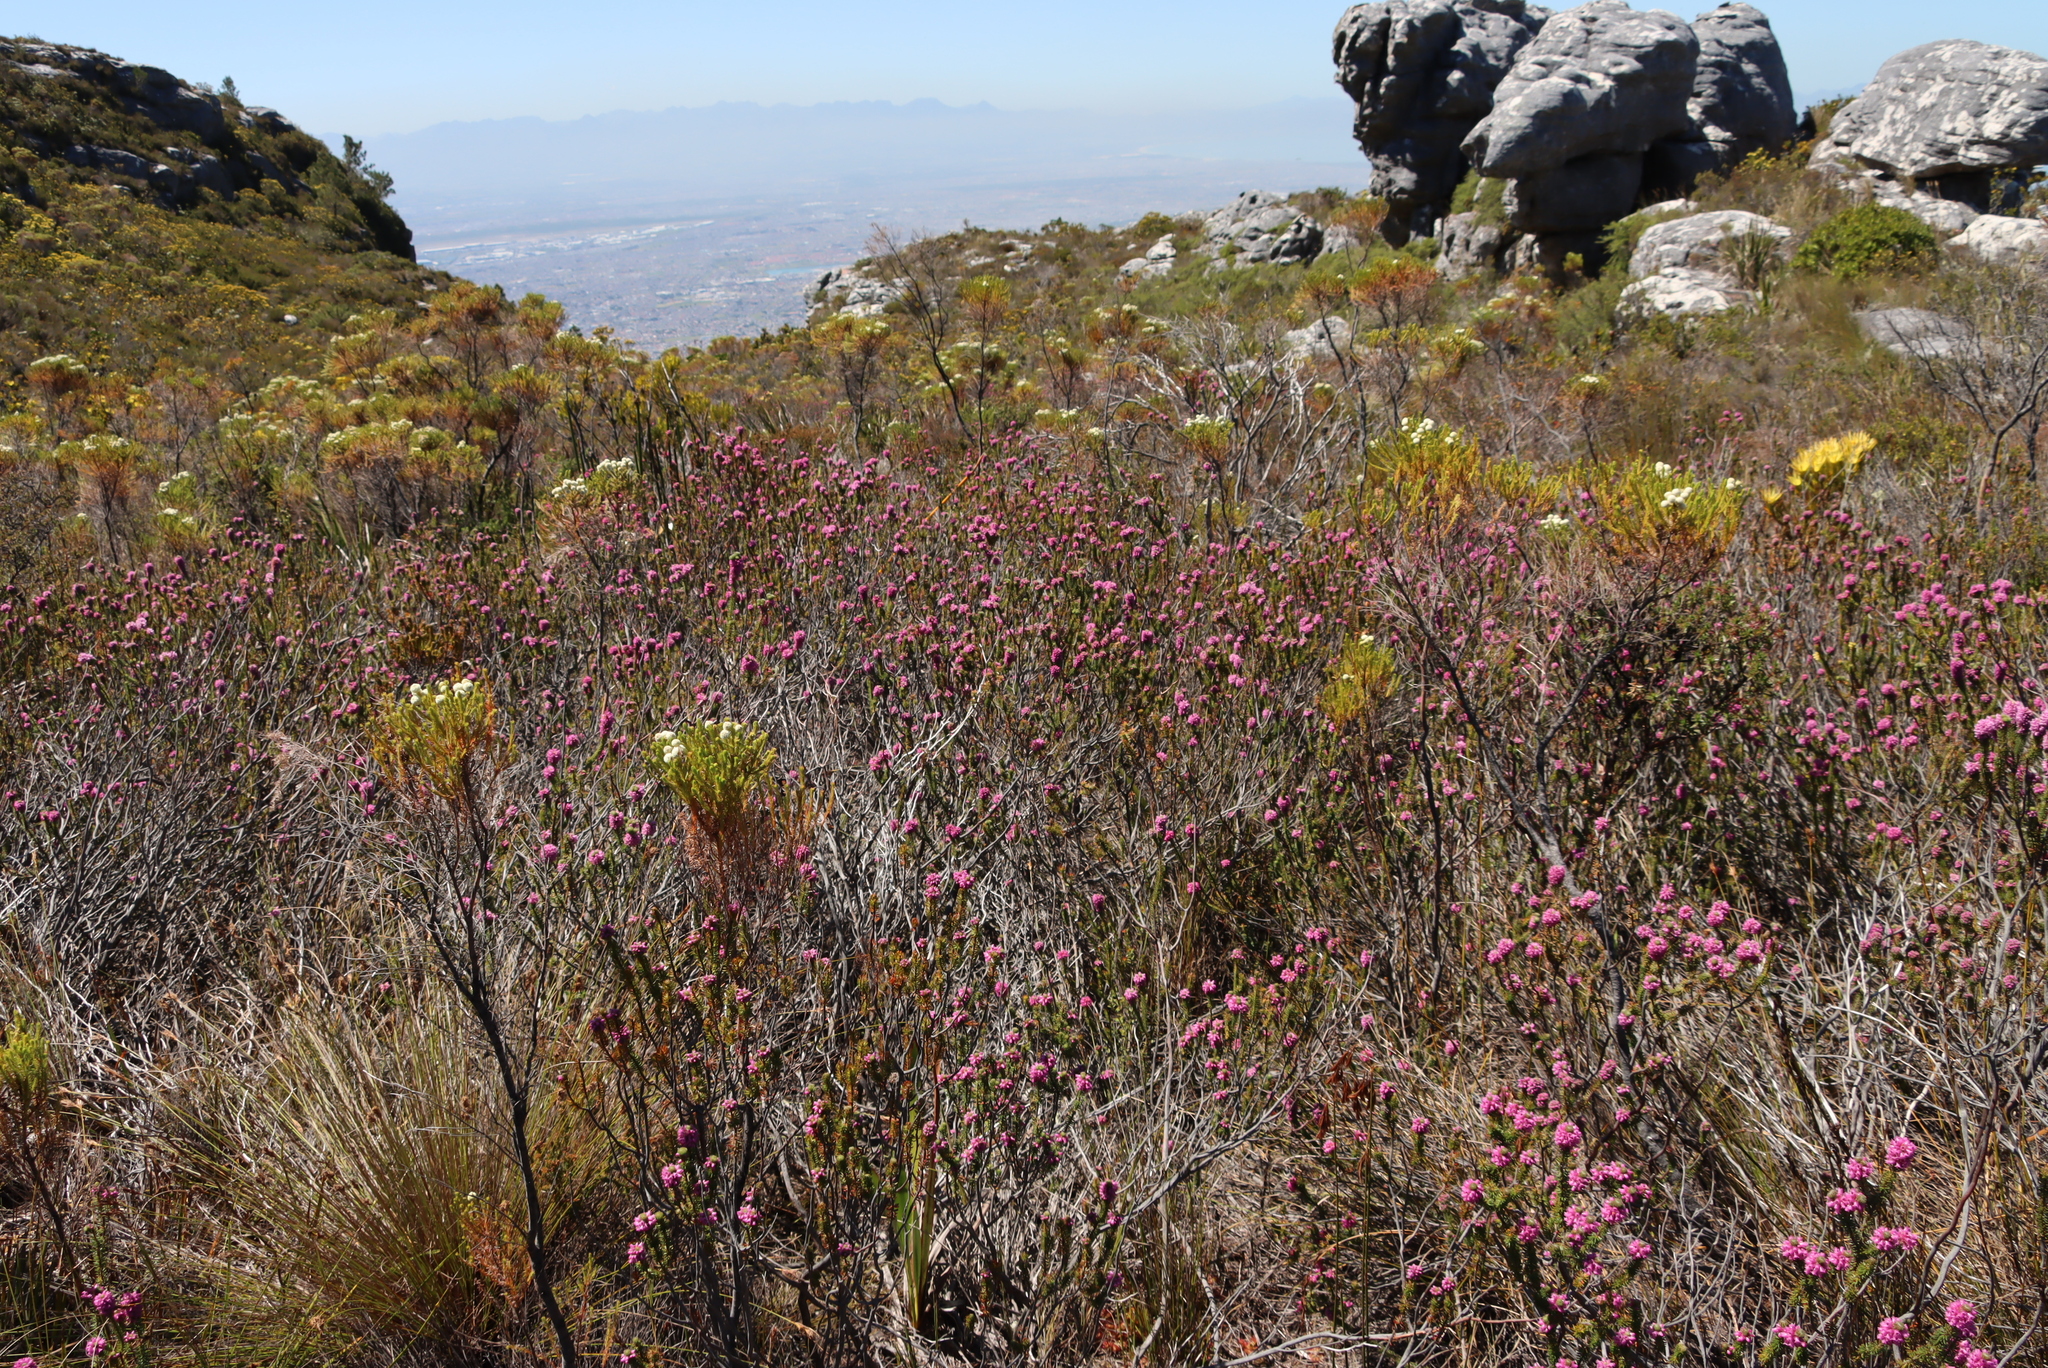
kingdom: Plantae
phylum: Tracheophyta
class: Magnoliopsida
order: Ericales
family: Ericaceae
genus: Erica
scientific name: Erica empetrina
